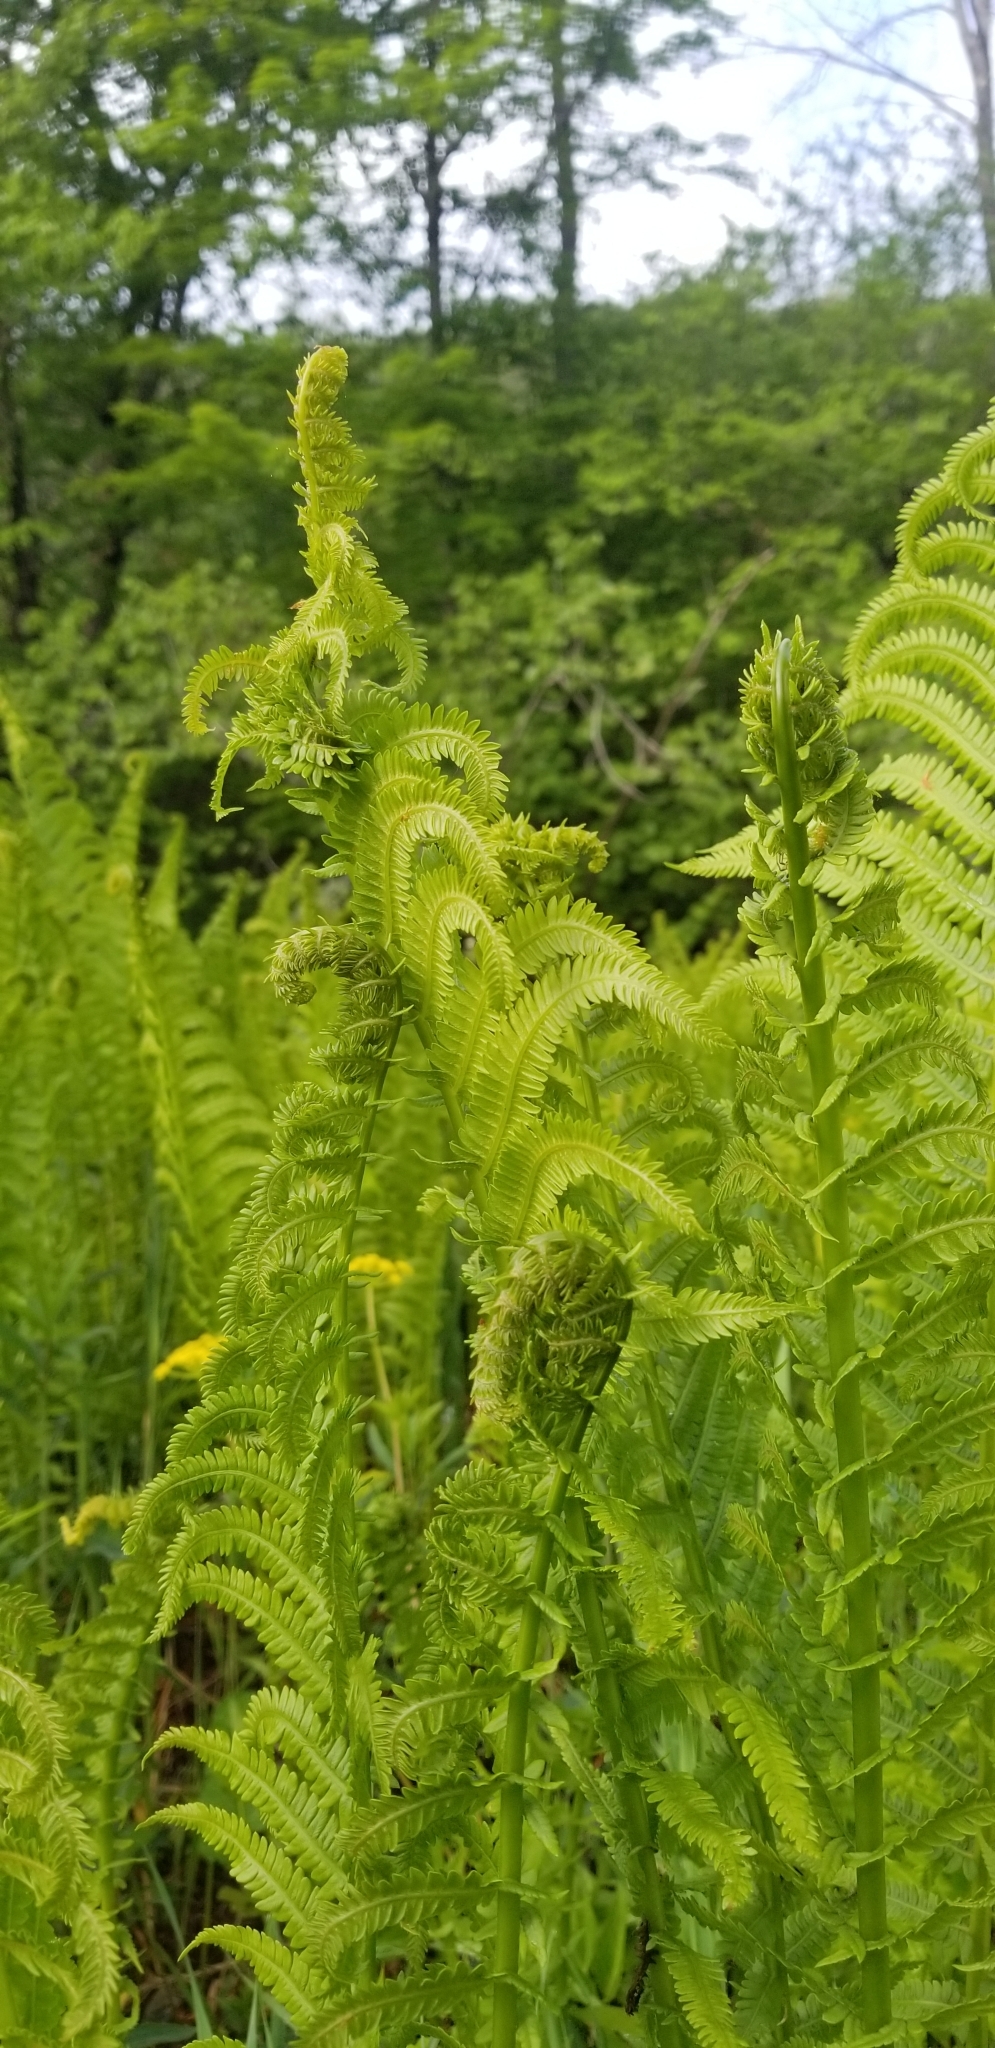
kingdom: Plantae
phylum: Tracheophyta
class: Polypodiopsida
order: Polypodiales
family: Onocleaceae
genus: Matteuccia
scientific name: Matteuccia struthiopteris
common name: Ostrich fern
